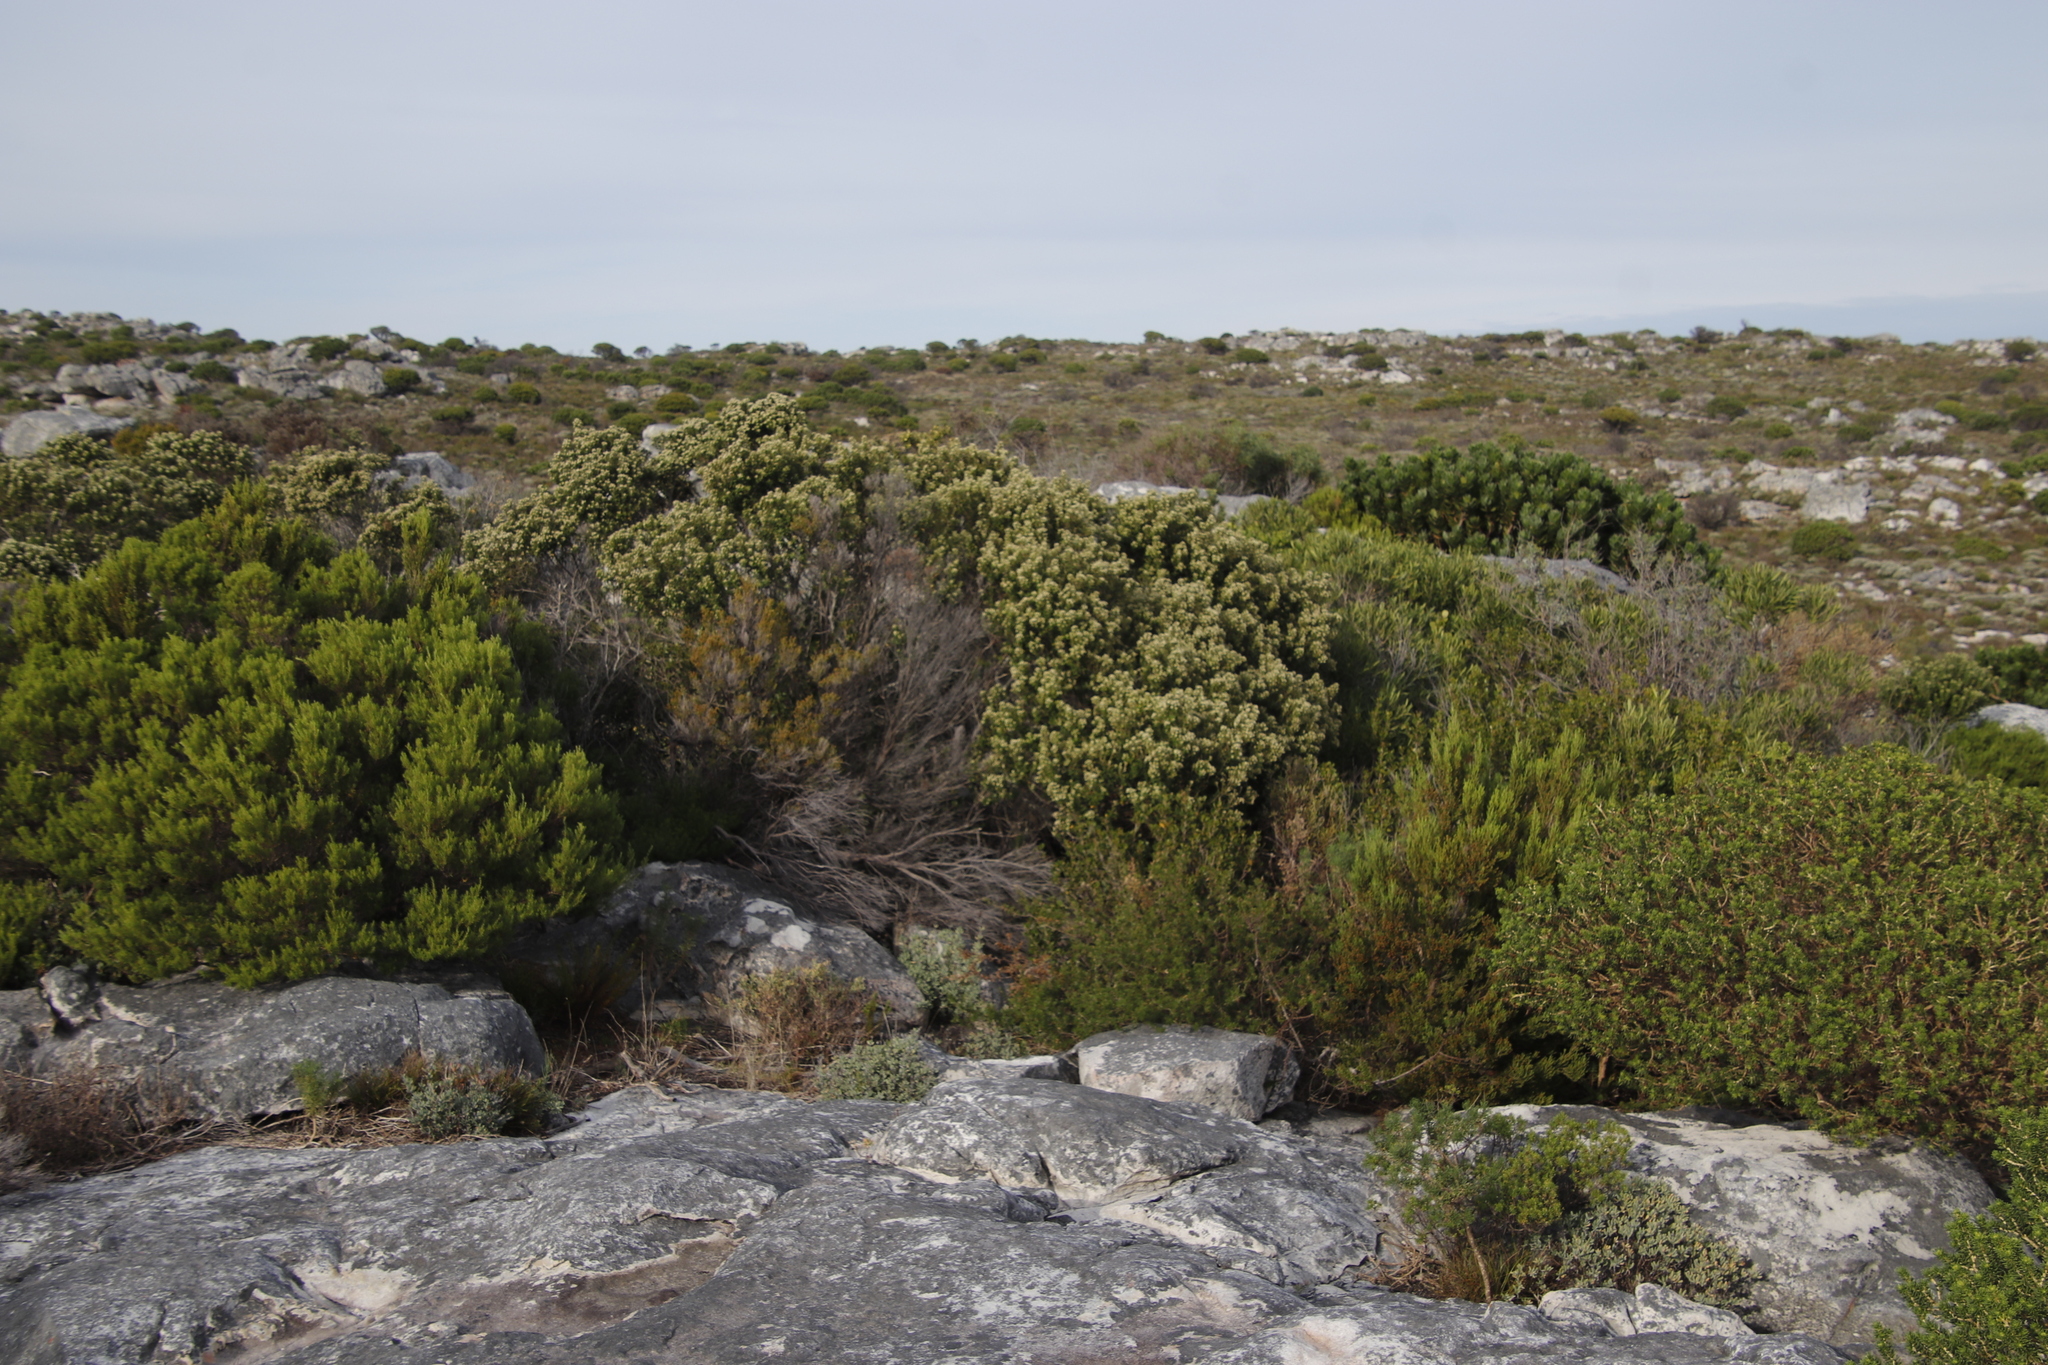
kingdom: Plantae
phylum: Tracheophyta
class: Magnoliopsida
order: Rosales
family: Rhamnaceae
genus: Phylica
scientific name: Phylica buxifolia
